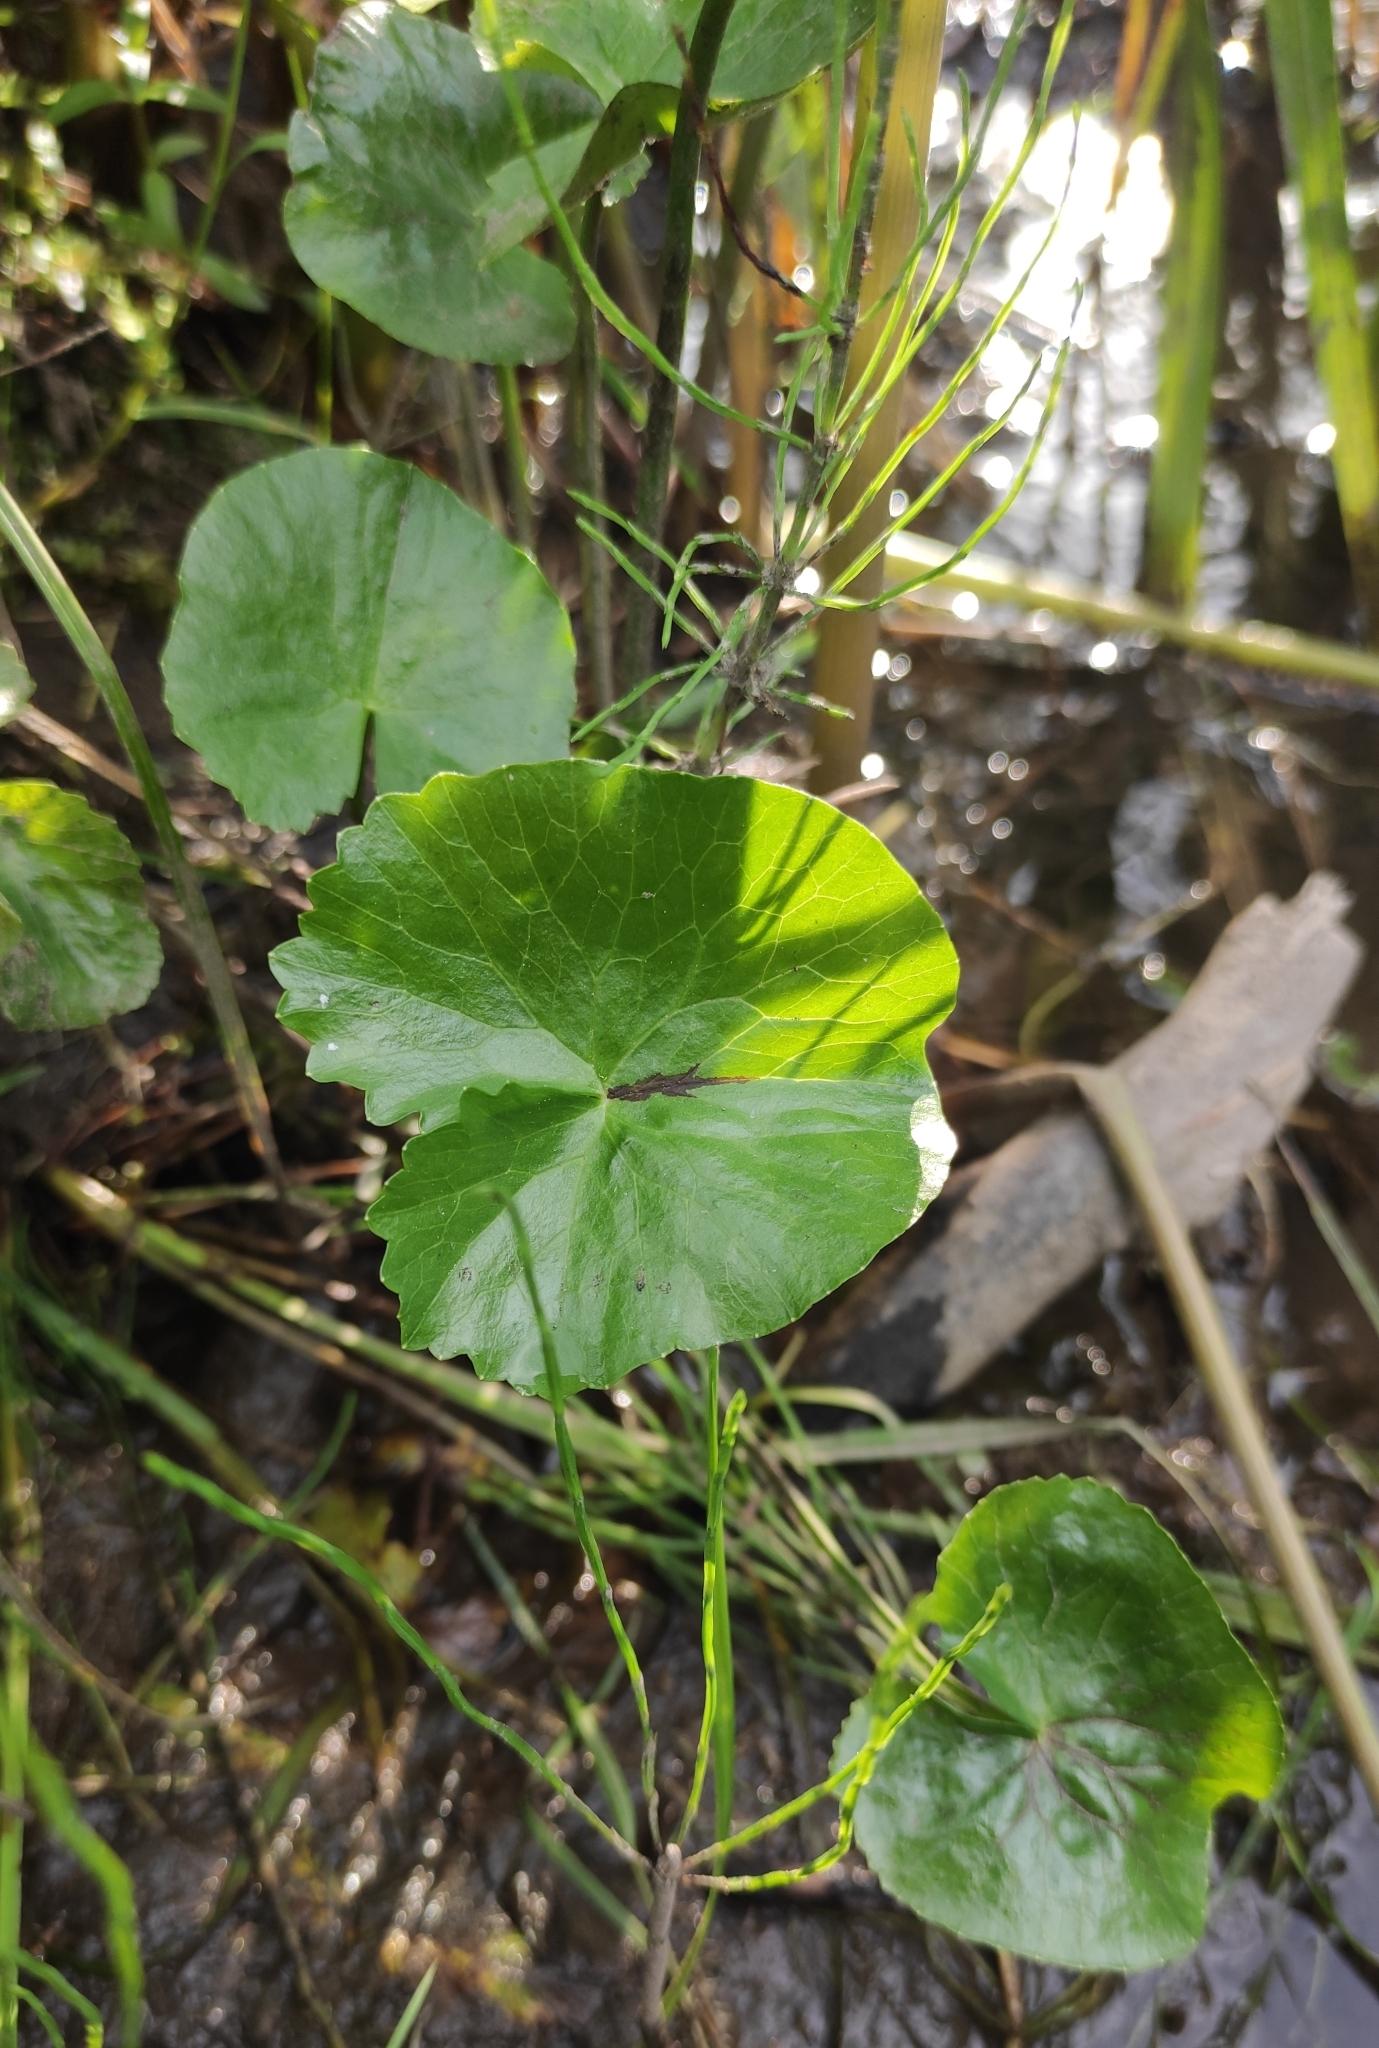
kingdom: Plantae
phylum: Tracheophyta
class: Magnoliopsida
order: Ranunculales
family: Ranunculaceae
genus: Caltha
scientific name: Caltha palustris
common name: Marsh marigold
